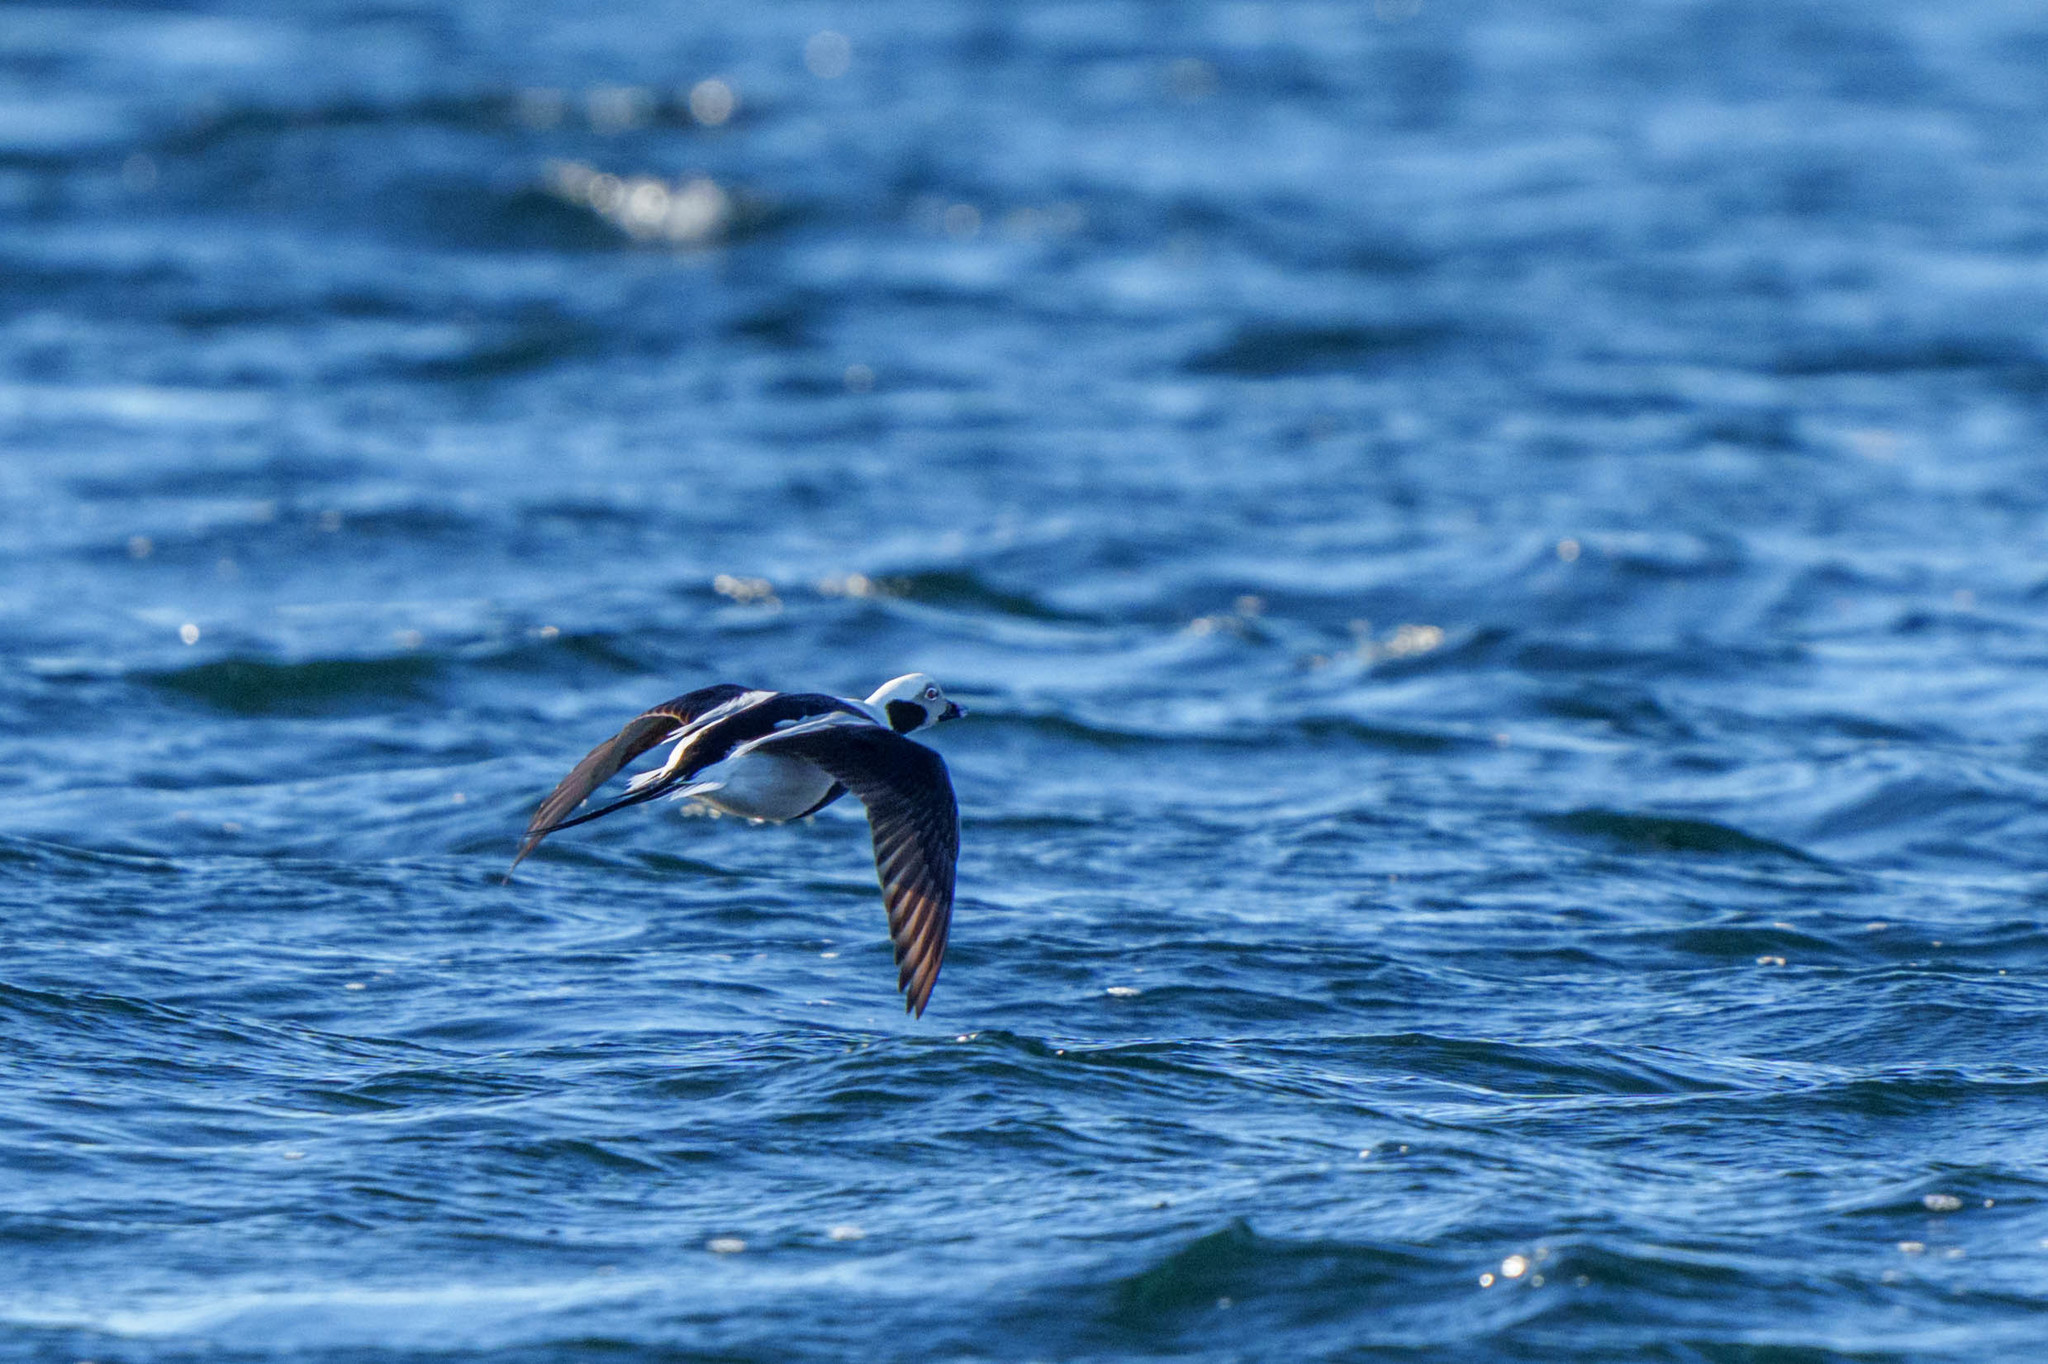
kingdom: Animalia
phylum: Chordata
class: Aves
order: Anseriformes
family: Anatidae
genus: Clangula
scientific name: Clangula hyemalis
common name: Long-tailed duck
